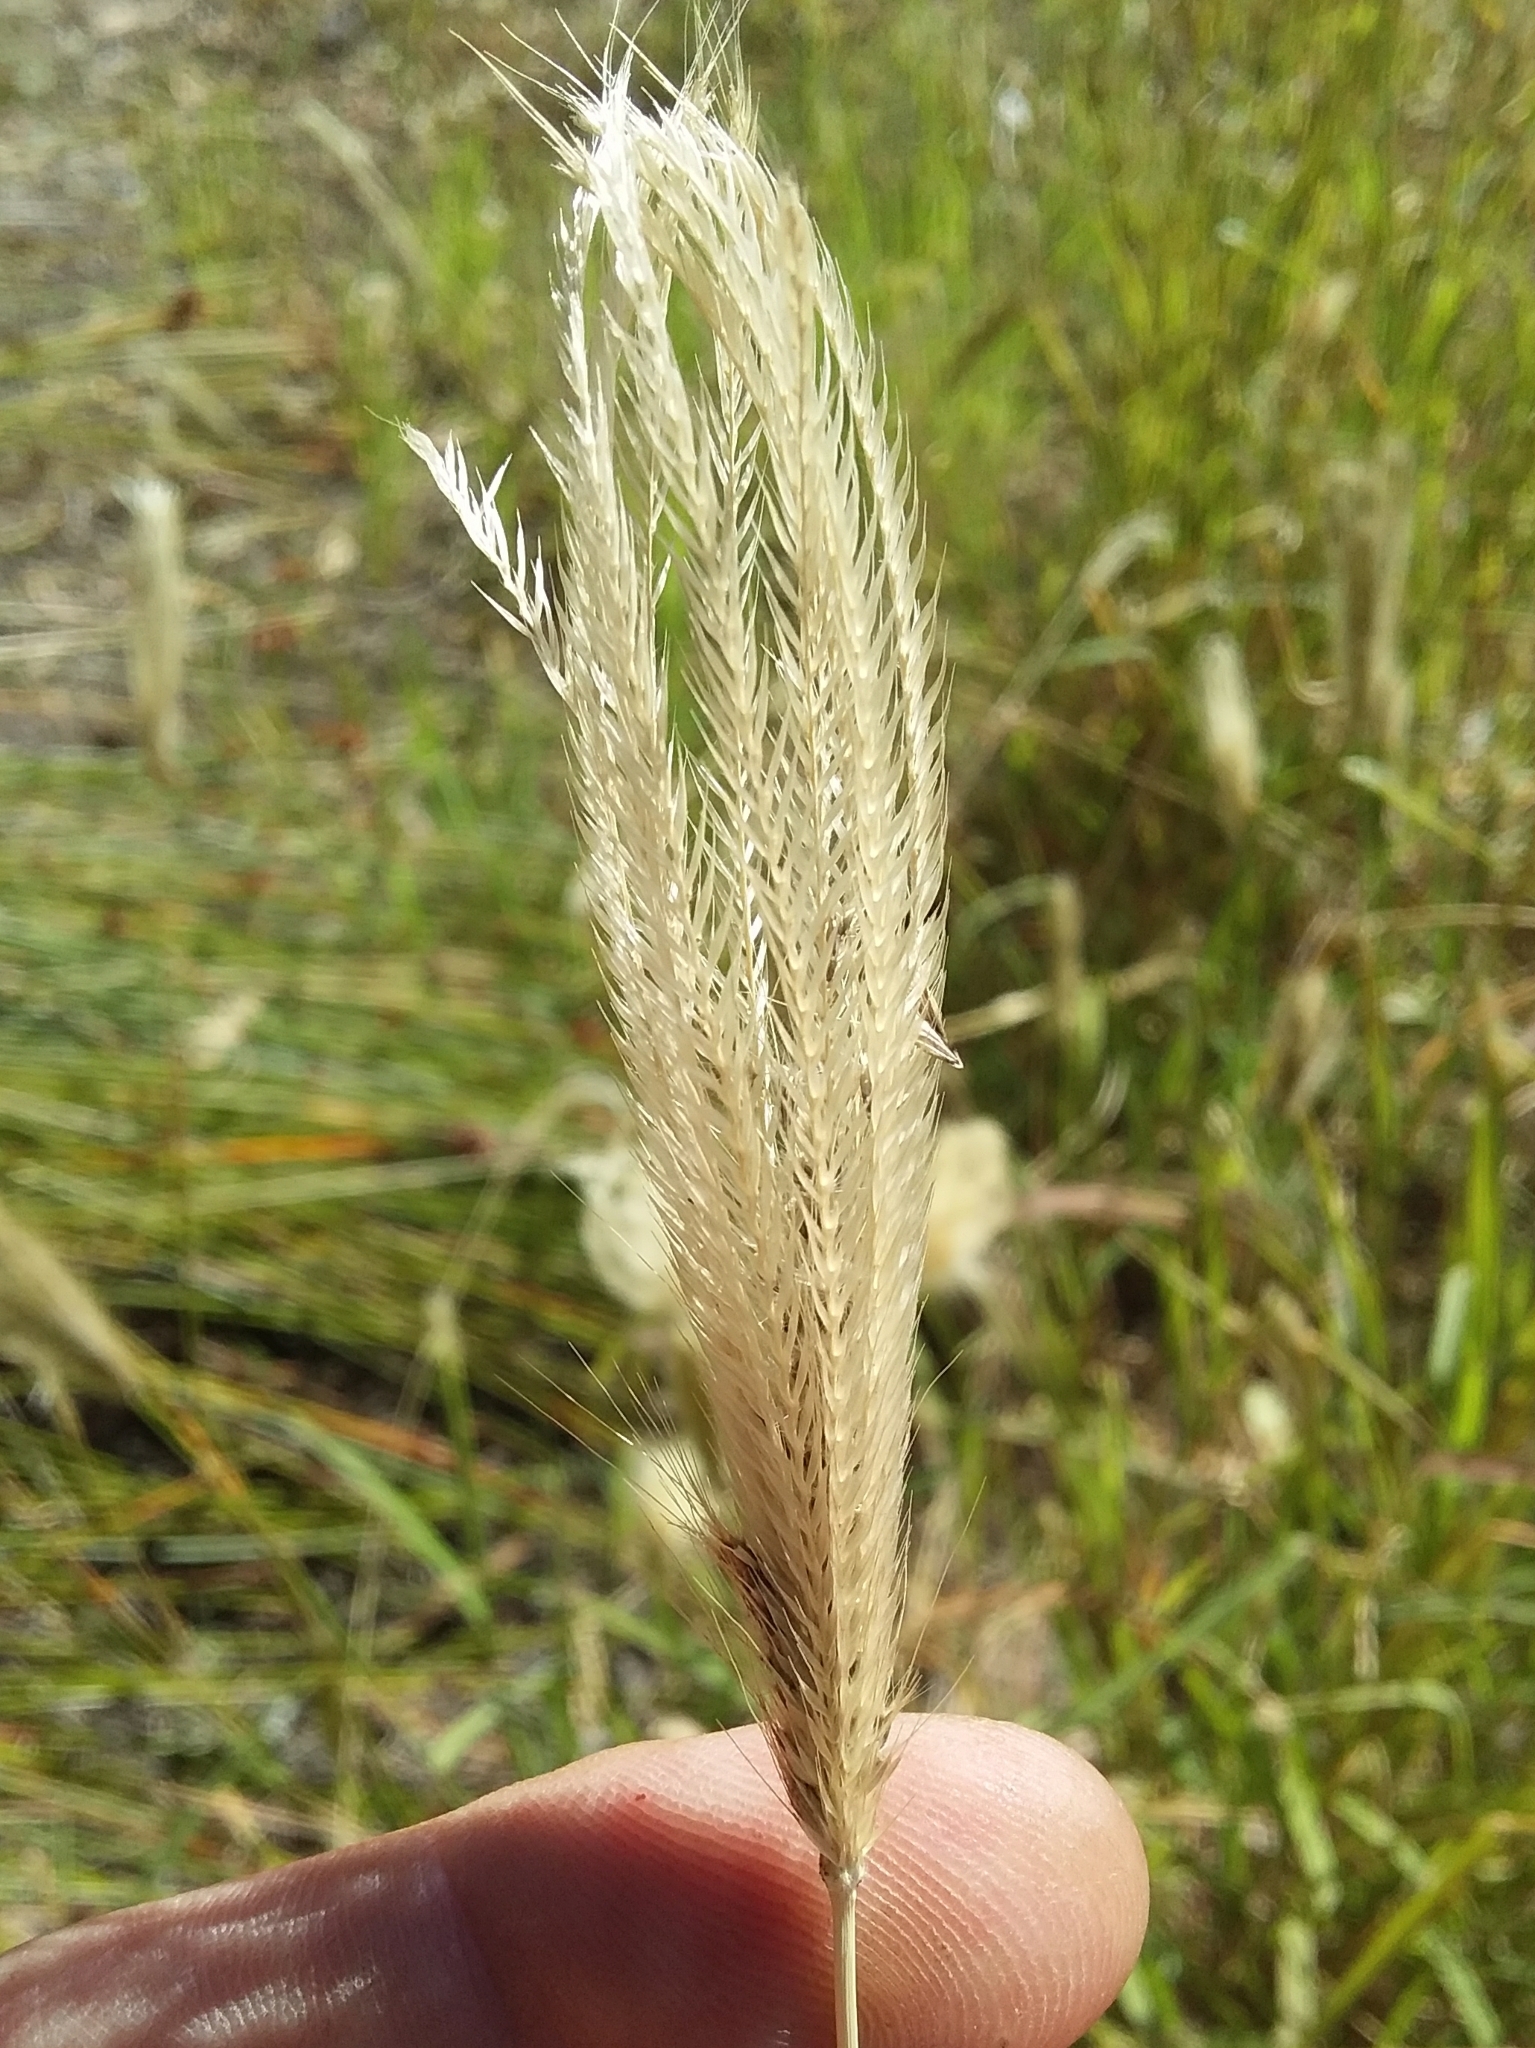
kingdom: Plantae
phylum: Tracheophyta
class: Liliopsida
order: Poales
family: Poaceae
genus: Chloris
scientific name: Chloris virgata
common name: Feathery rhodes-grass
